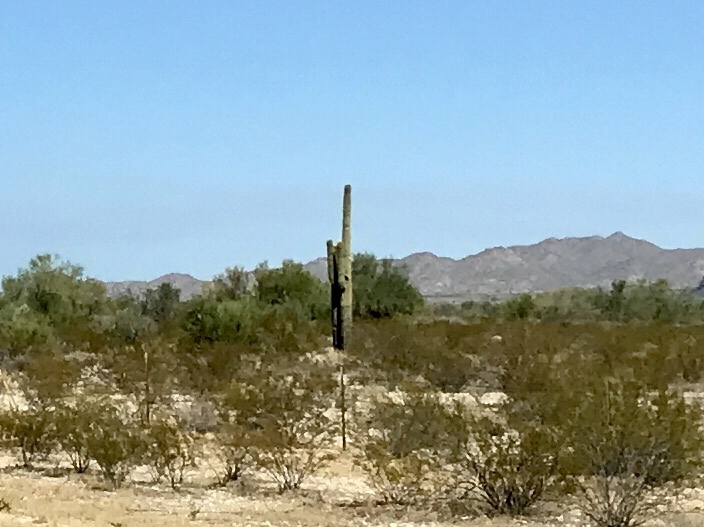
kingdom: Plantae
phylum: Tracheophyta
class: Magnoliopsida
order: Caryophyllales
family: Cactaceae
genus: Carnegiea
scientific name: Carnegiea gigantea
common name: Saguaro
